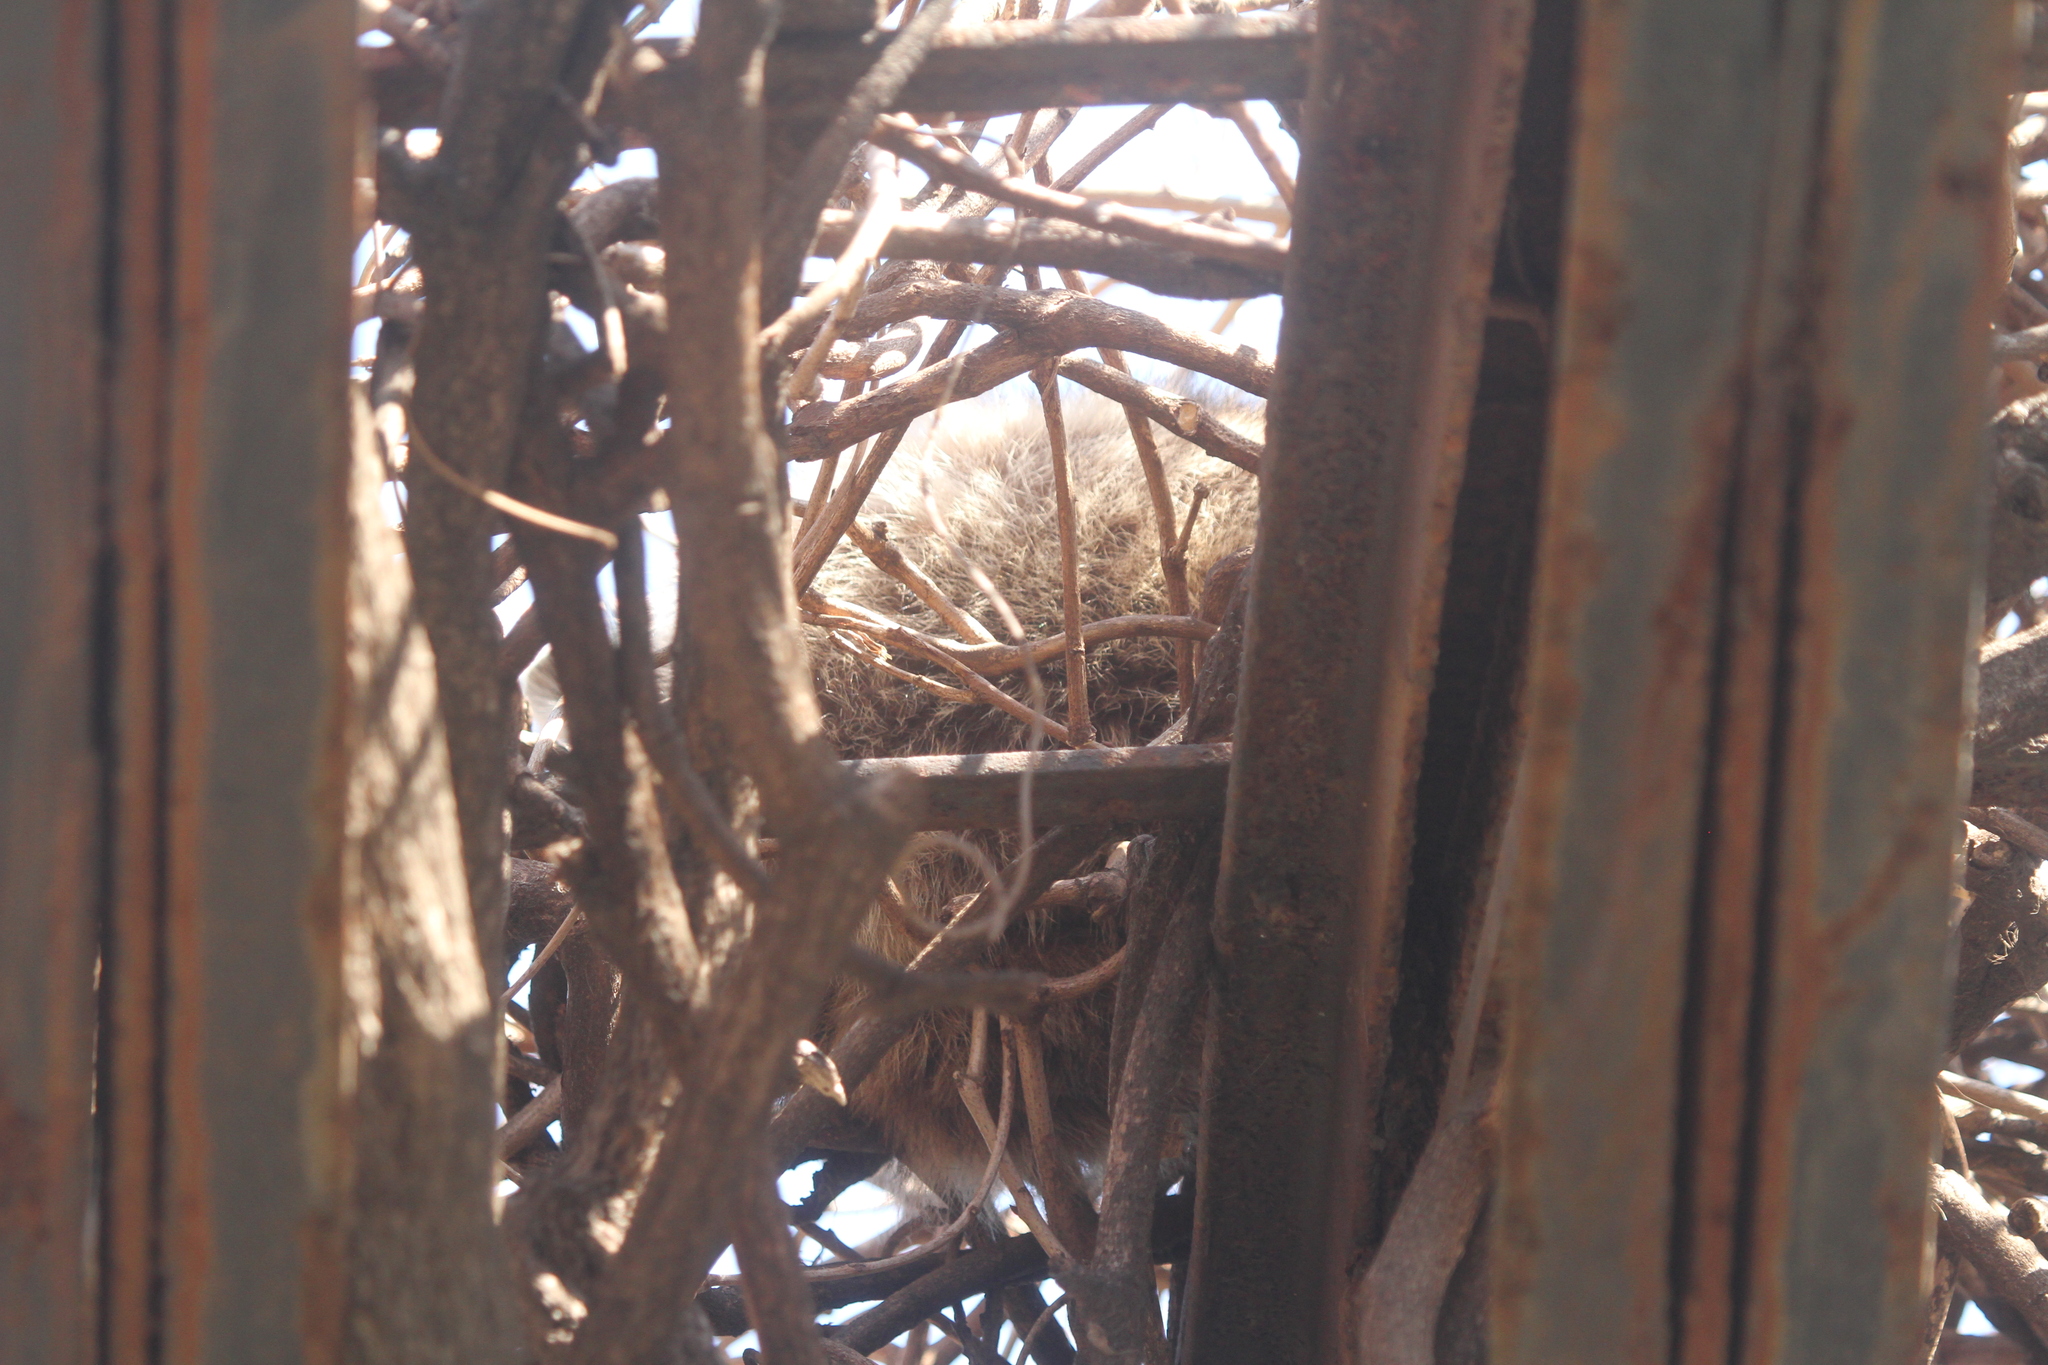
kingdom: Animalia
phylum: Chordata
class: Mammalia
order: Carnivora
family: Procyonidae
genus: Procyon
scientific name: Procyon lotor
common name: Raccoon
